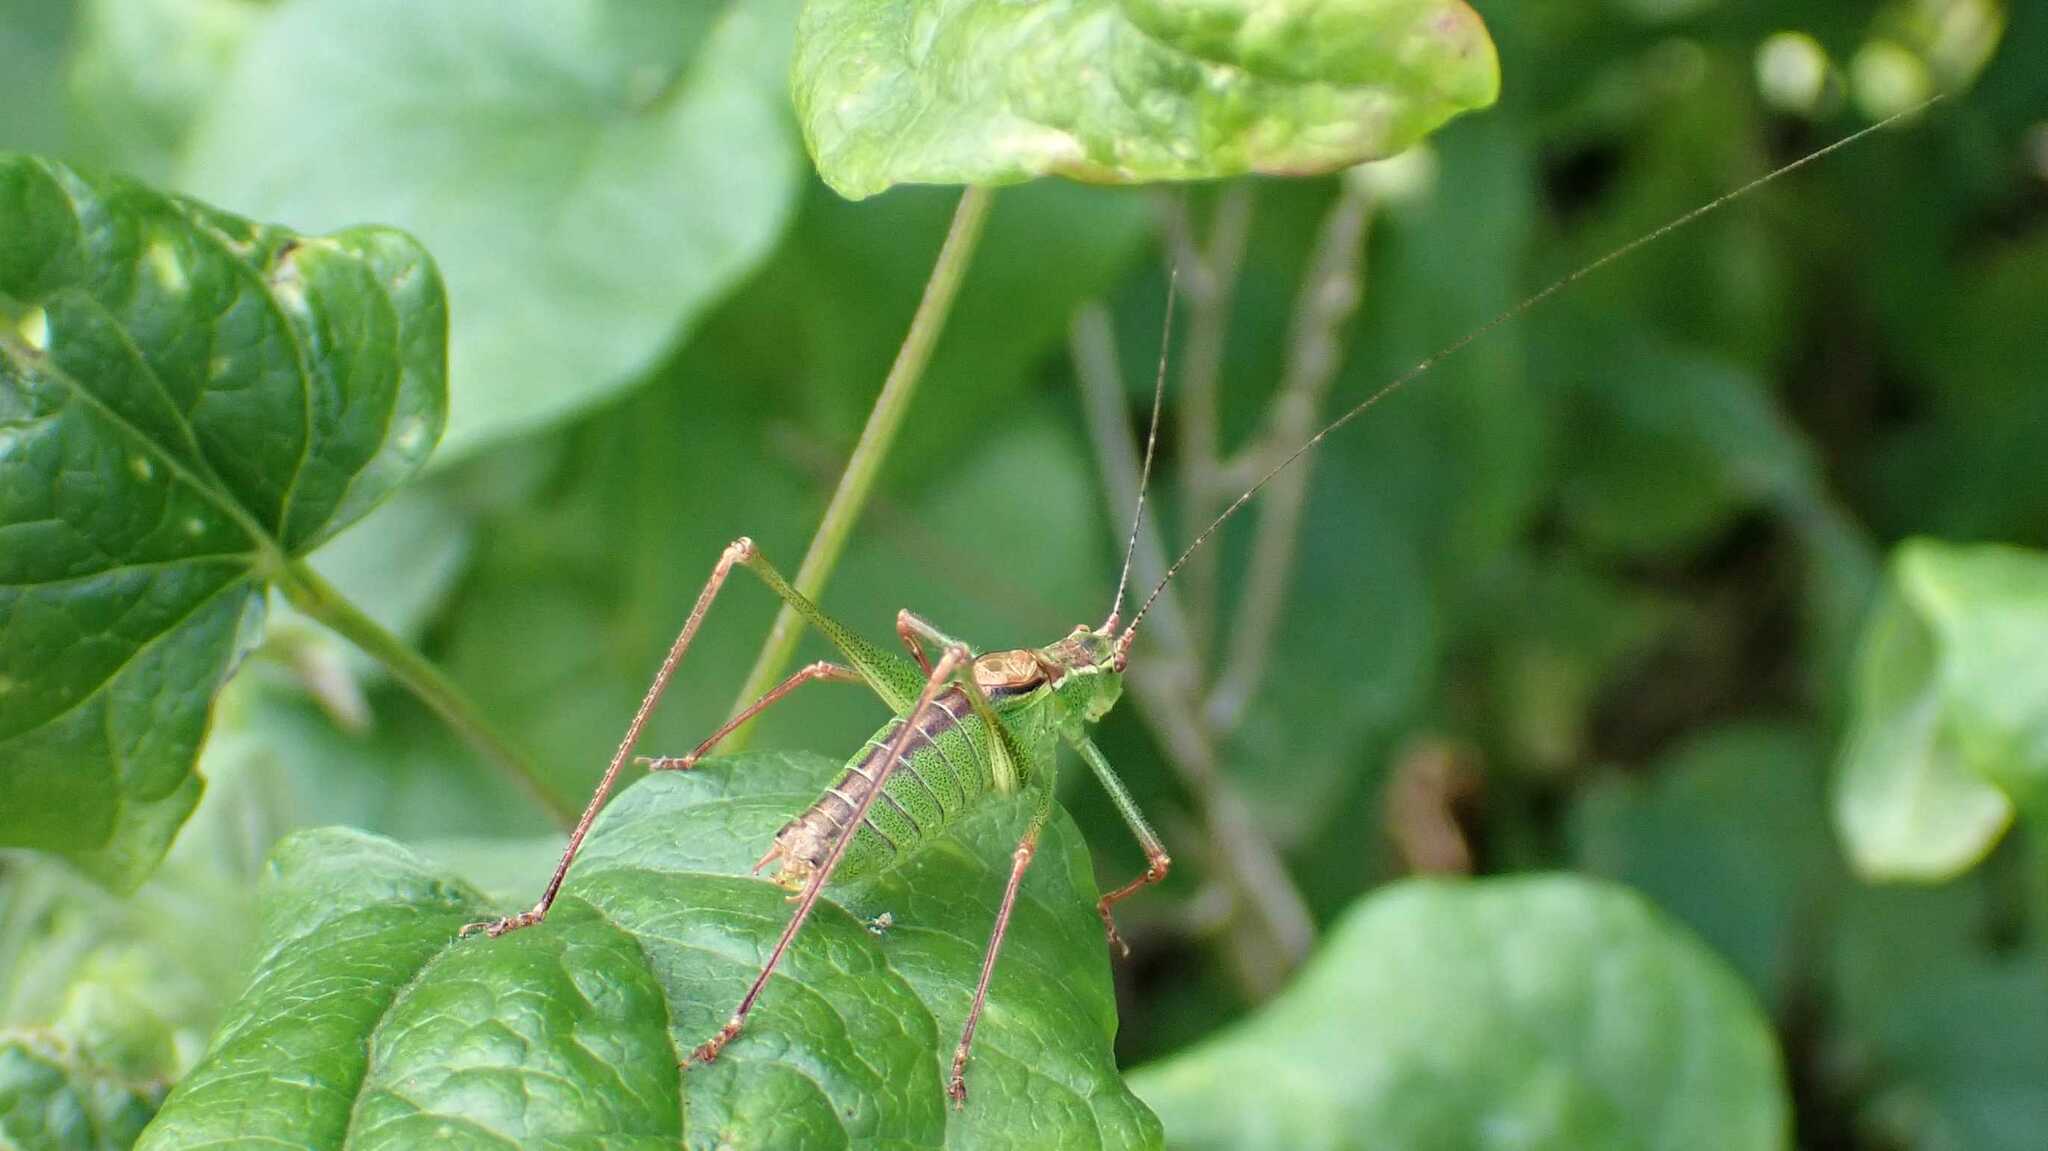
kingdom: Animalia
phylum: Arthropoda
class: Insecta
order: Orthoptera
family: Tettigoniidae
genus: Leptophyes
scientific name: Leptophyes punctatissima
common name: Speckled bush-cricket
